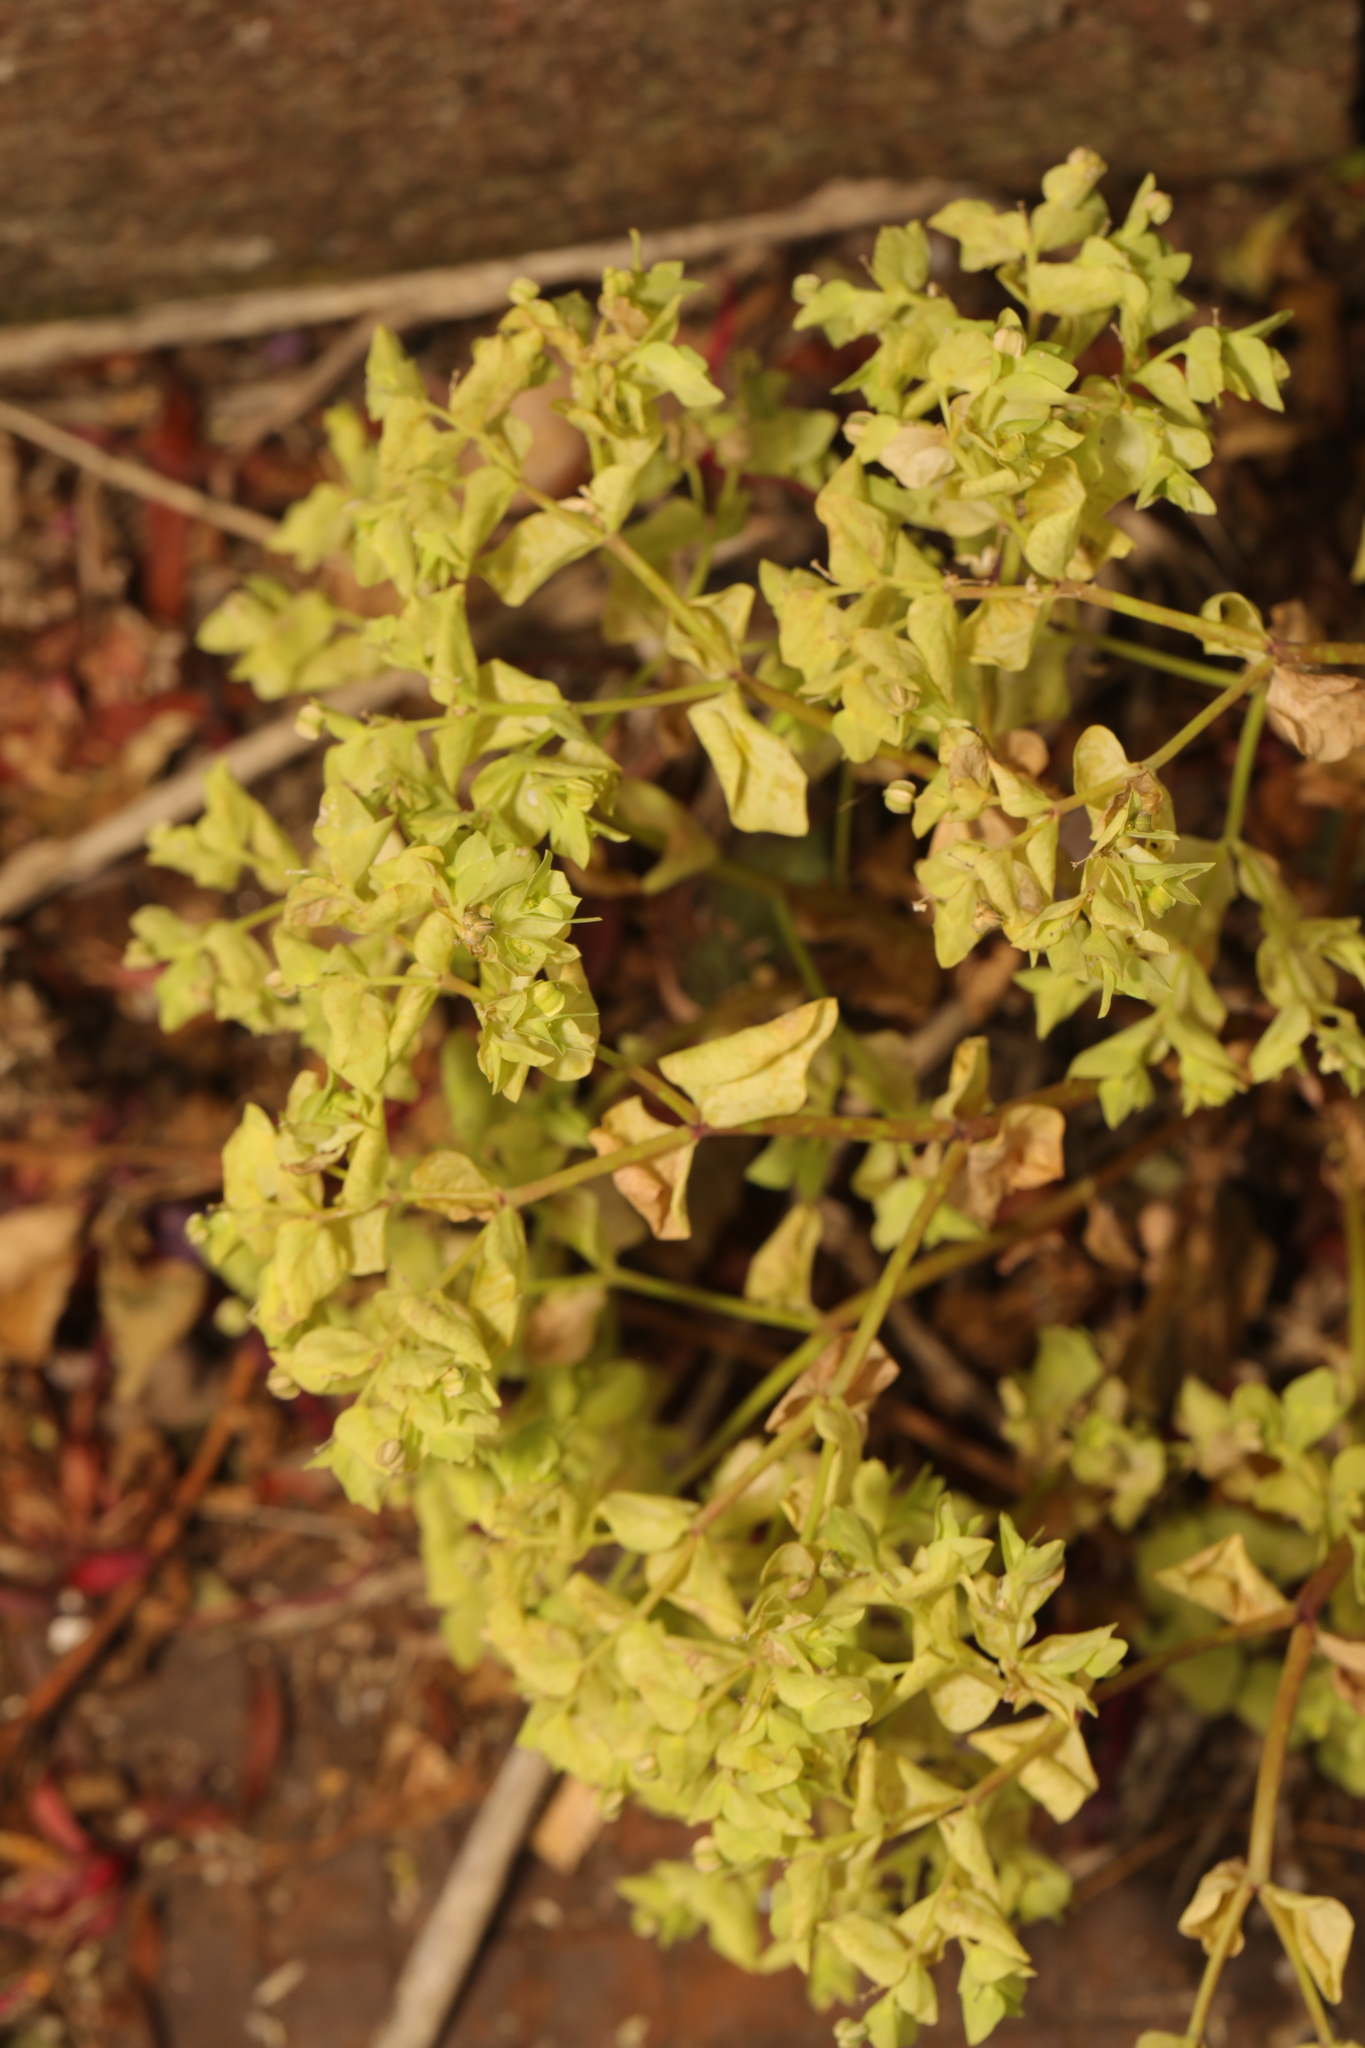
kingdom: Plantae
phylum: Tracheophyta
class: Magnoliopsida
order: Malpighiales
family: Euphorbiaceae
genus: Euphorbia
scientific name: Euphorbia peplus
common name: Petty spurge
